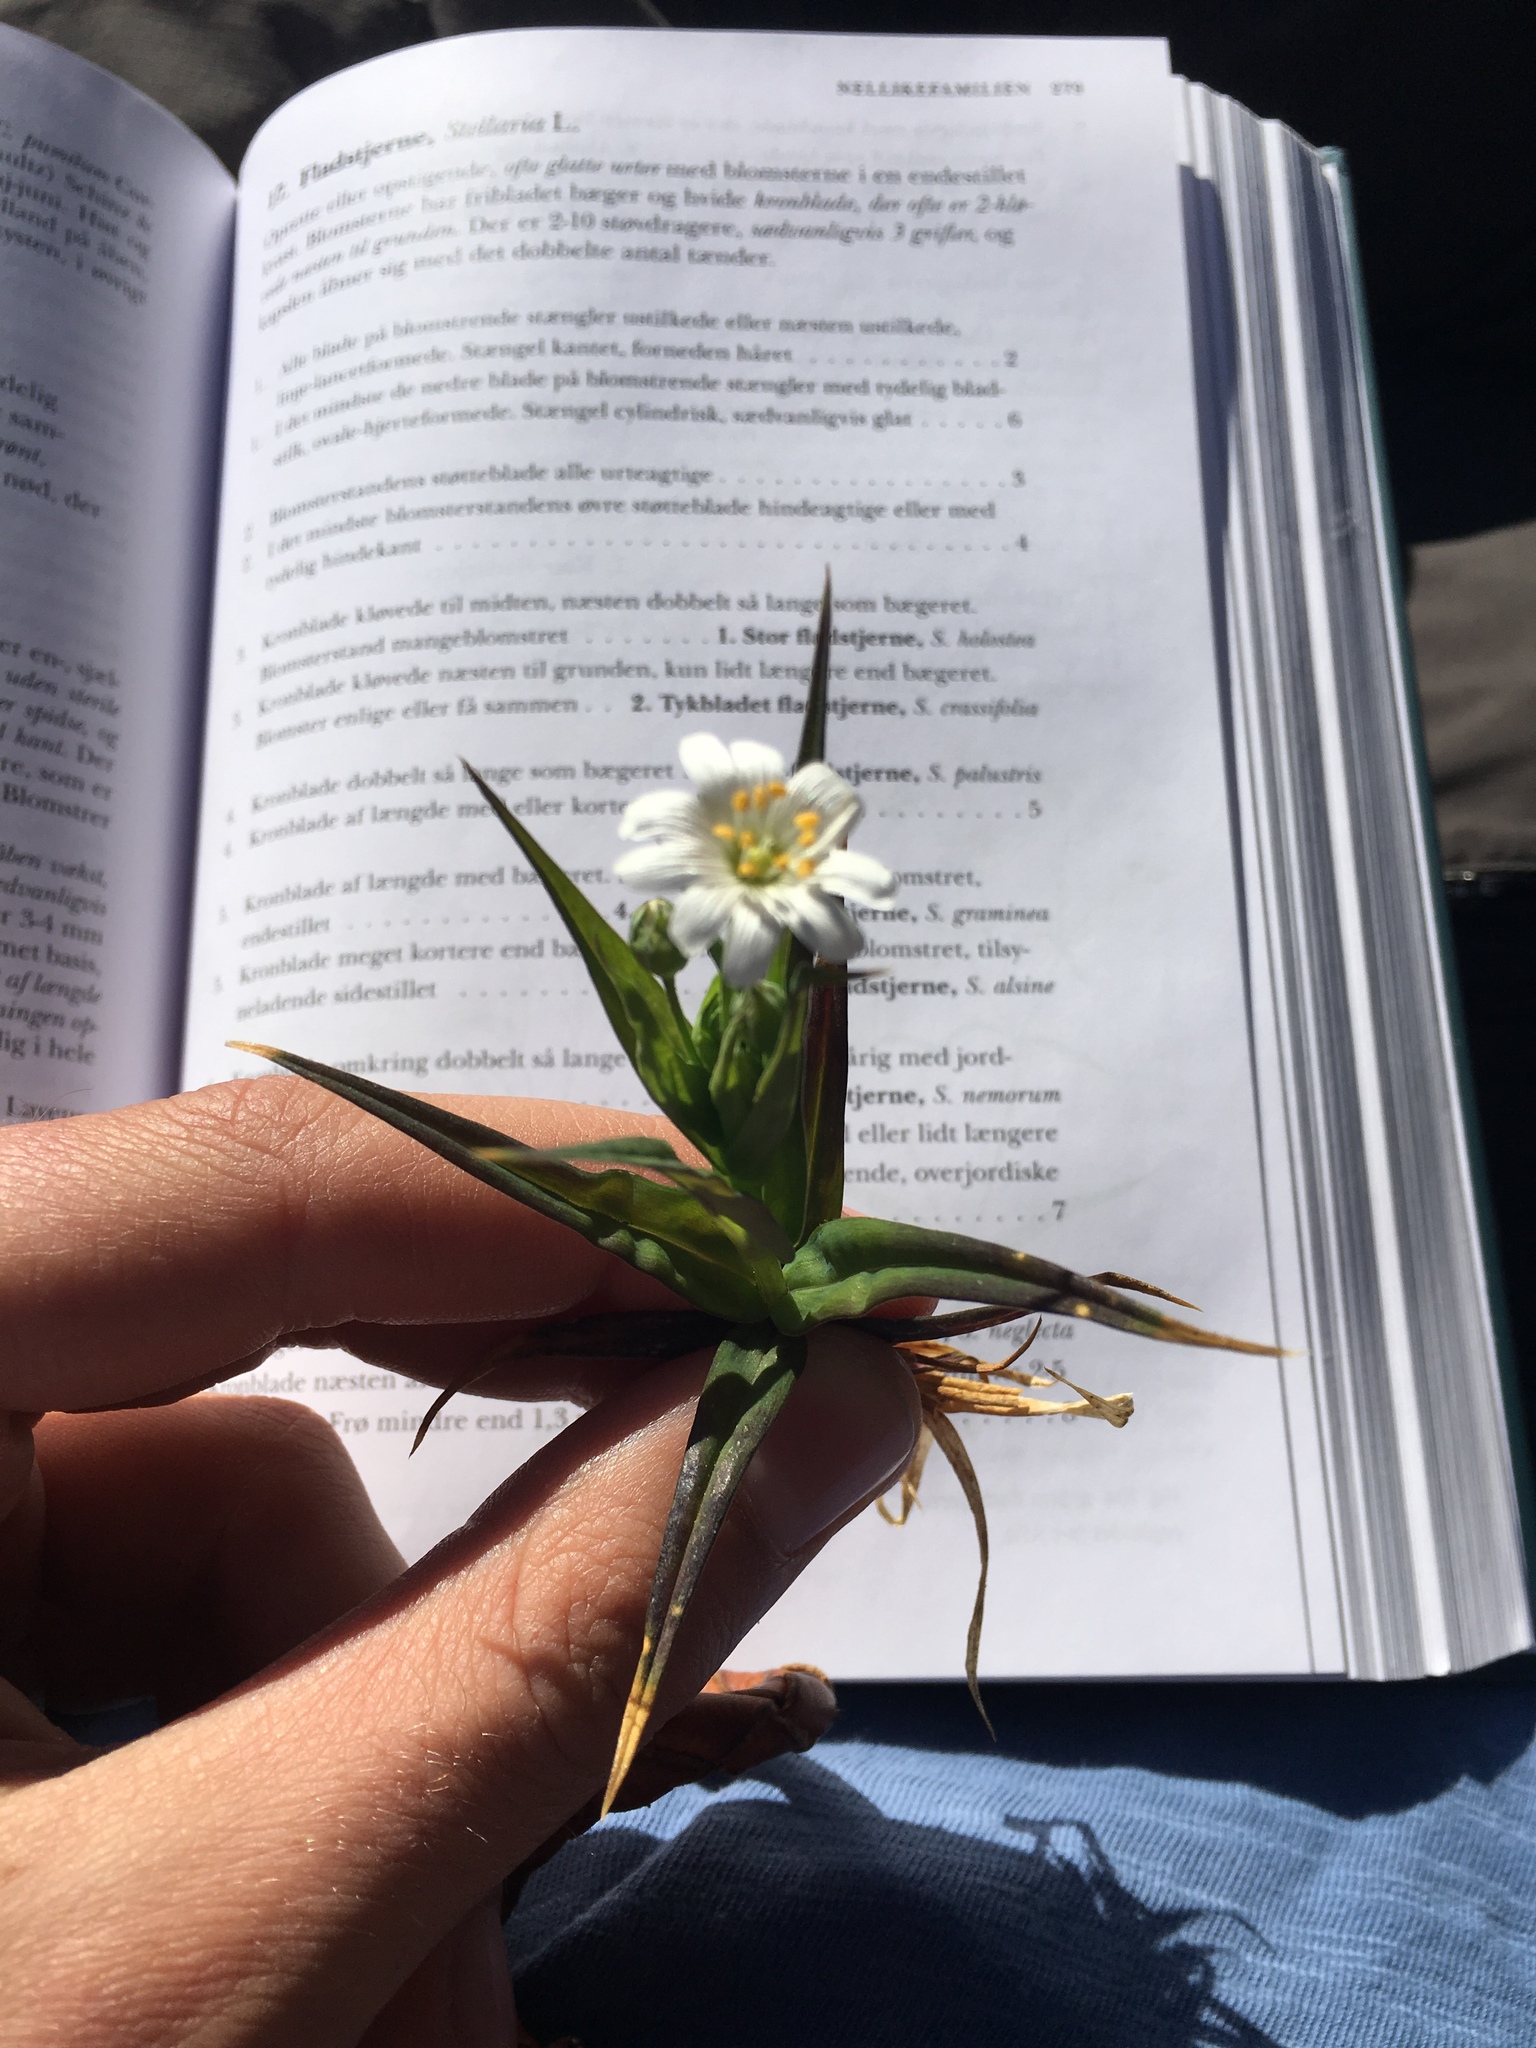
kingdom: Plantae
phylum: Tracheophyta
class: Magnoliopsida
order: Caryophyllales
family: Caryophyllaceae
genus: Rabelera
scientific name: Rabelera holostea
